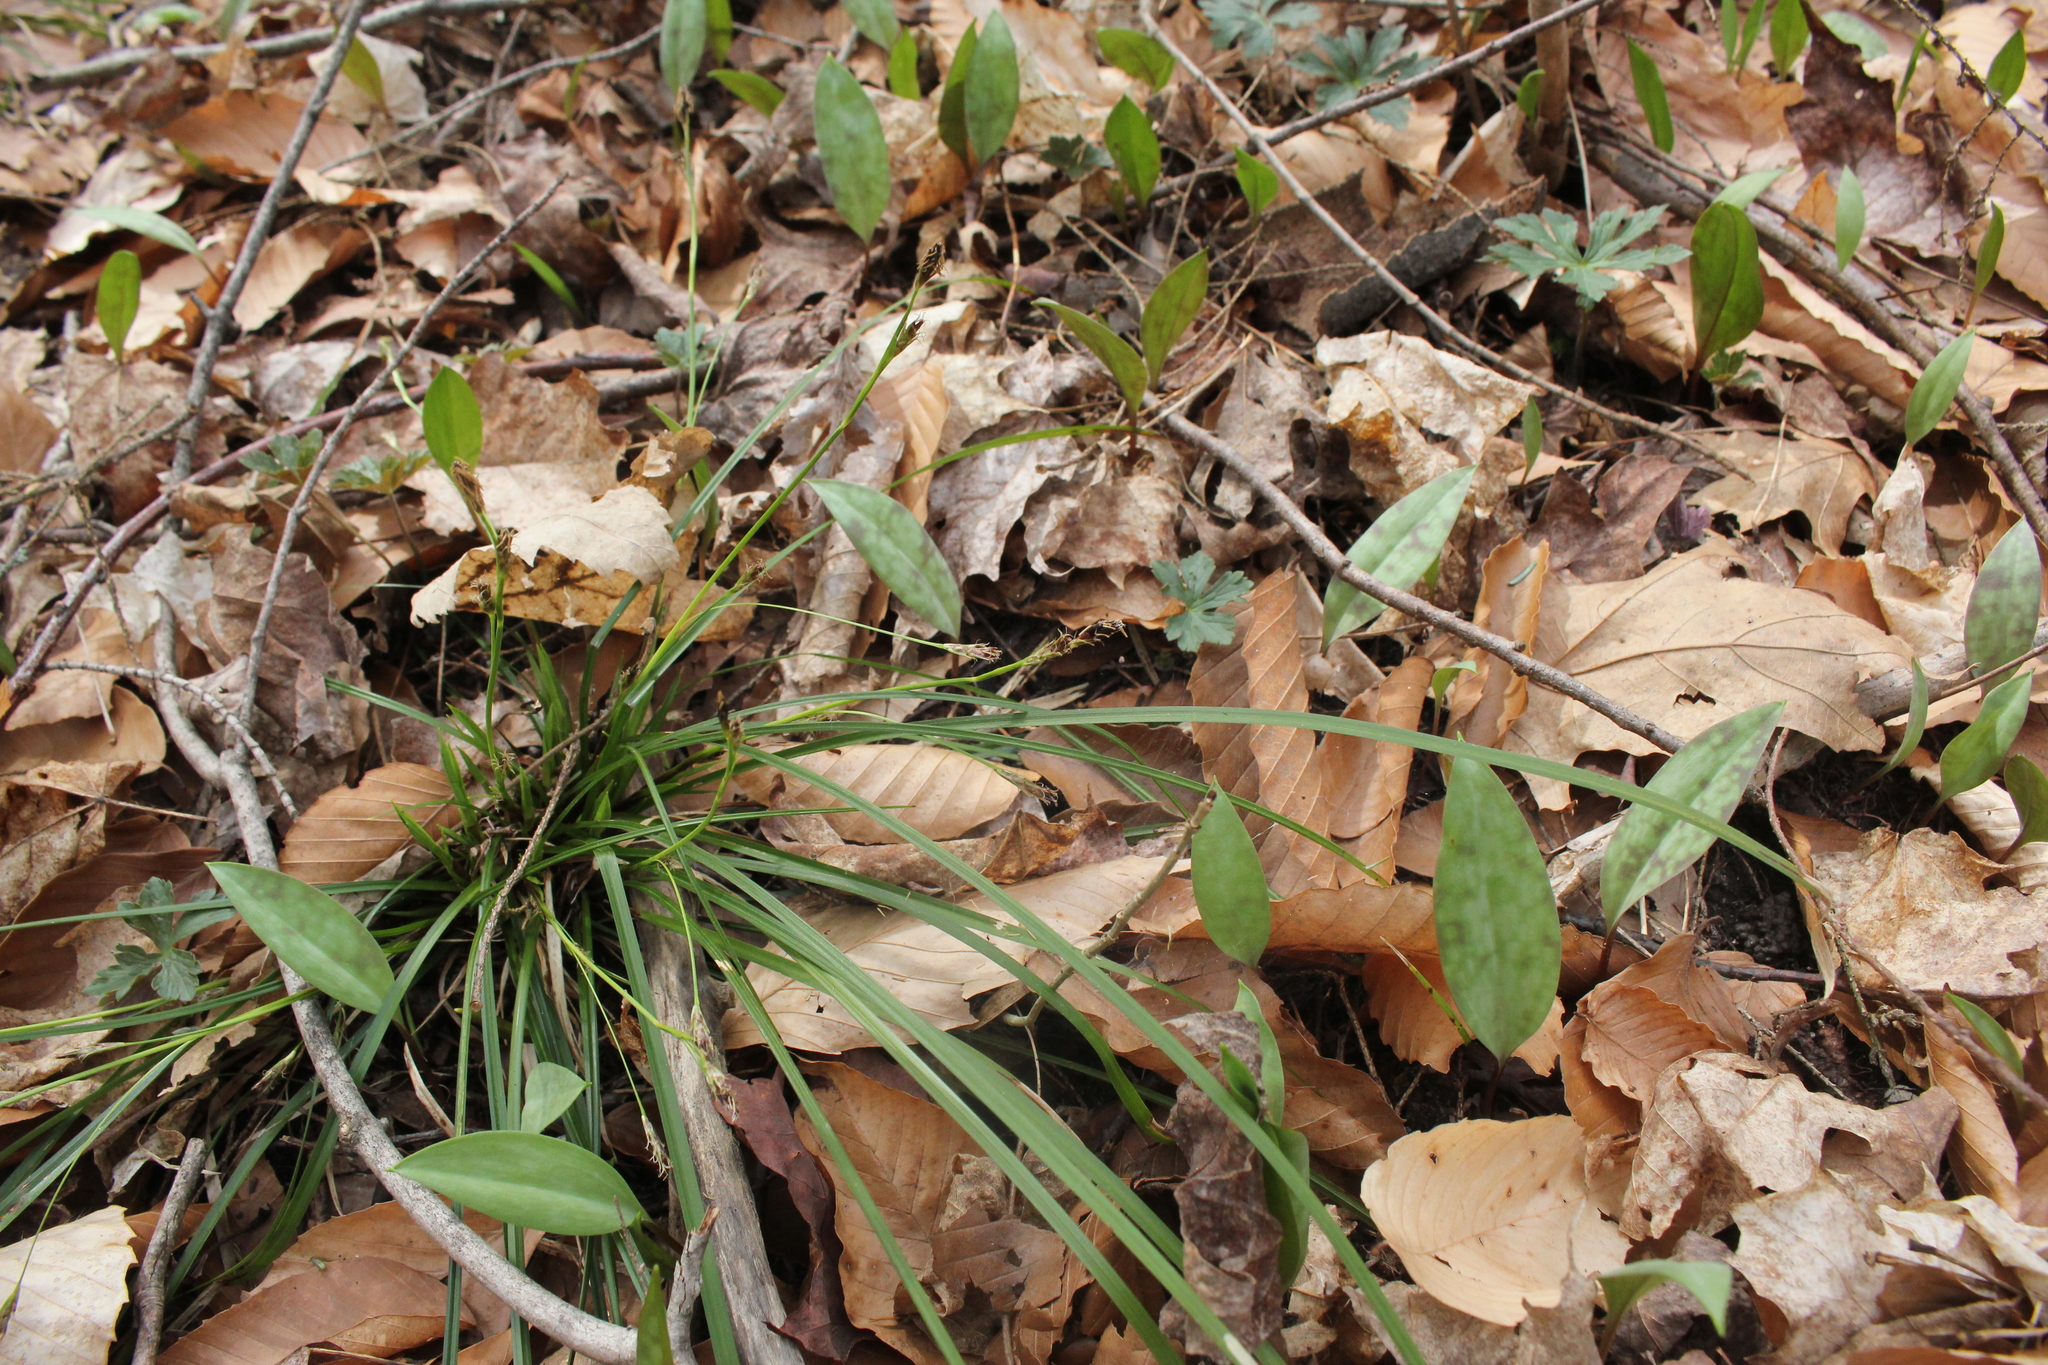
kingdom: Plantae
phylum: Tracheophyta
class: Liliopsida
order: Poales
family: Cyperaceae
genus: Carex
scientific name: Carex pedunculata
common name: Pedunculate sedge
